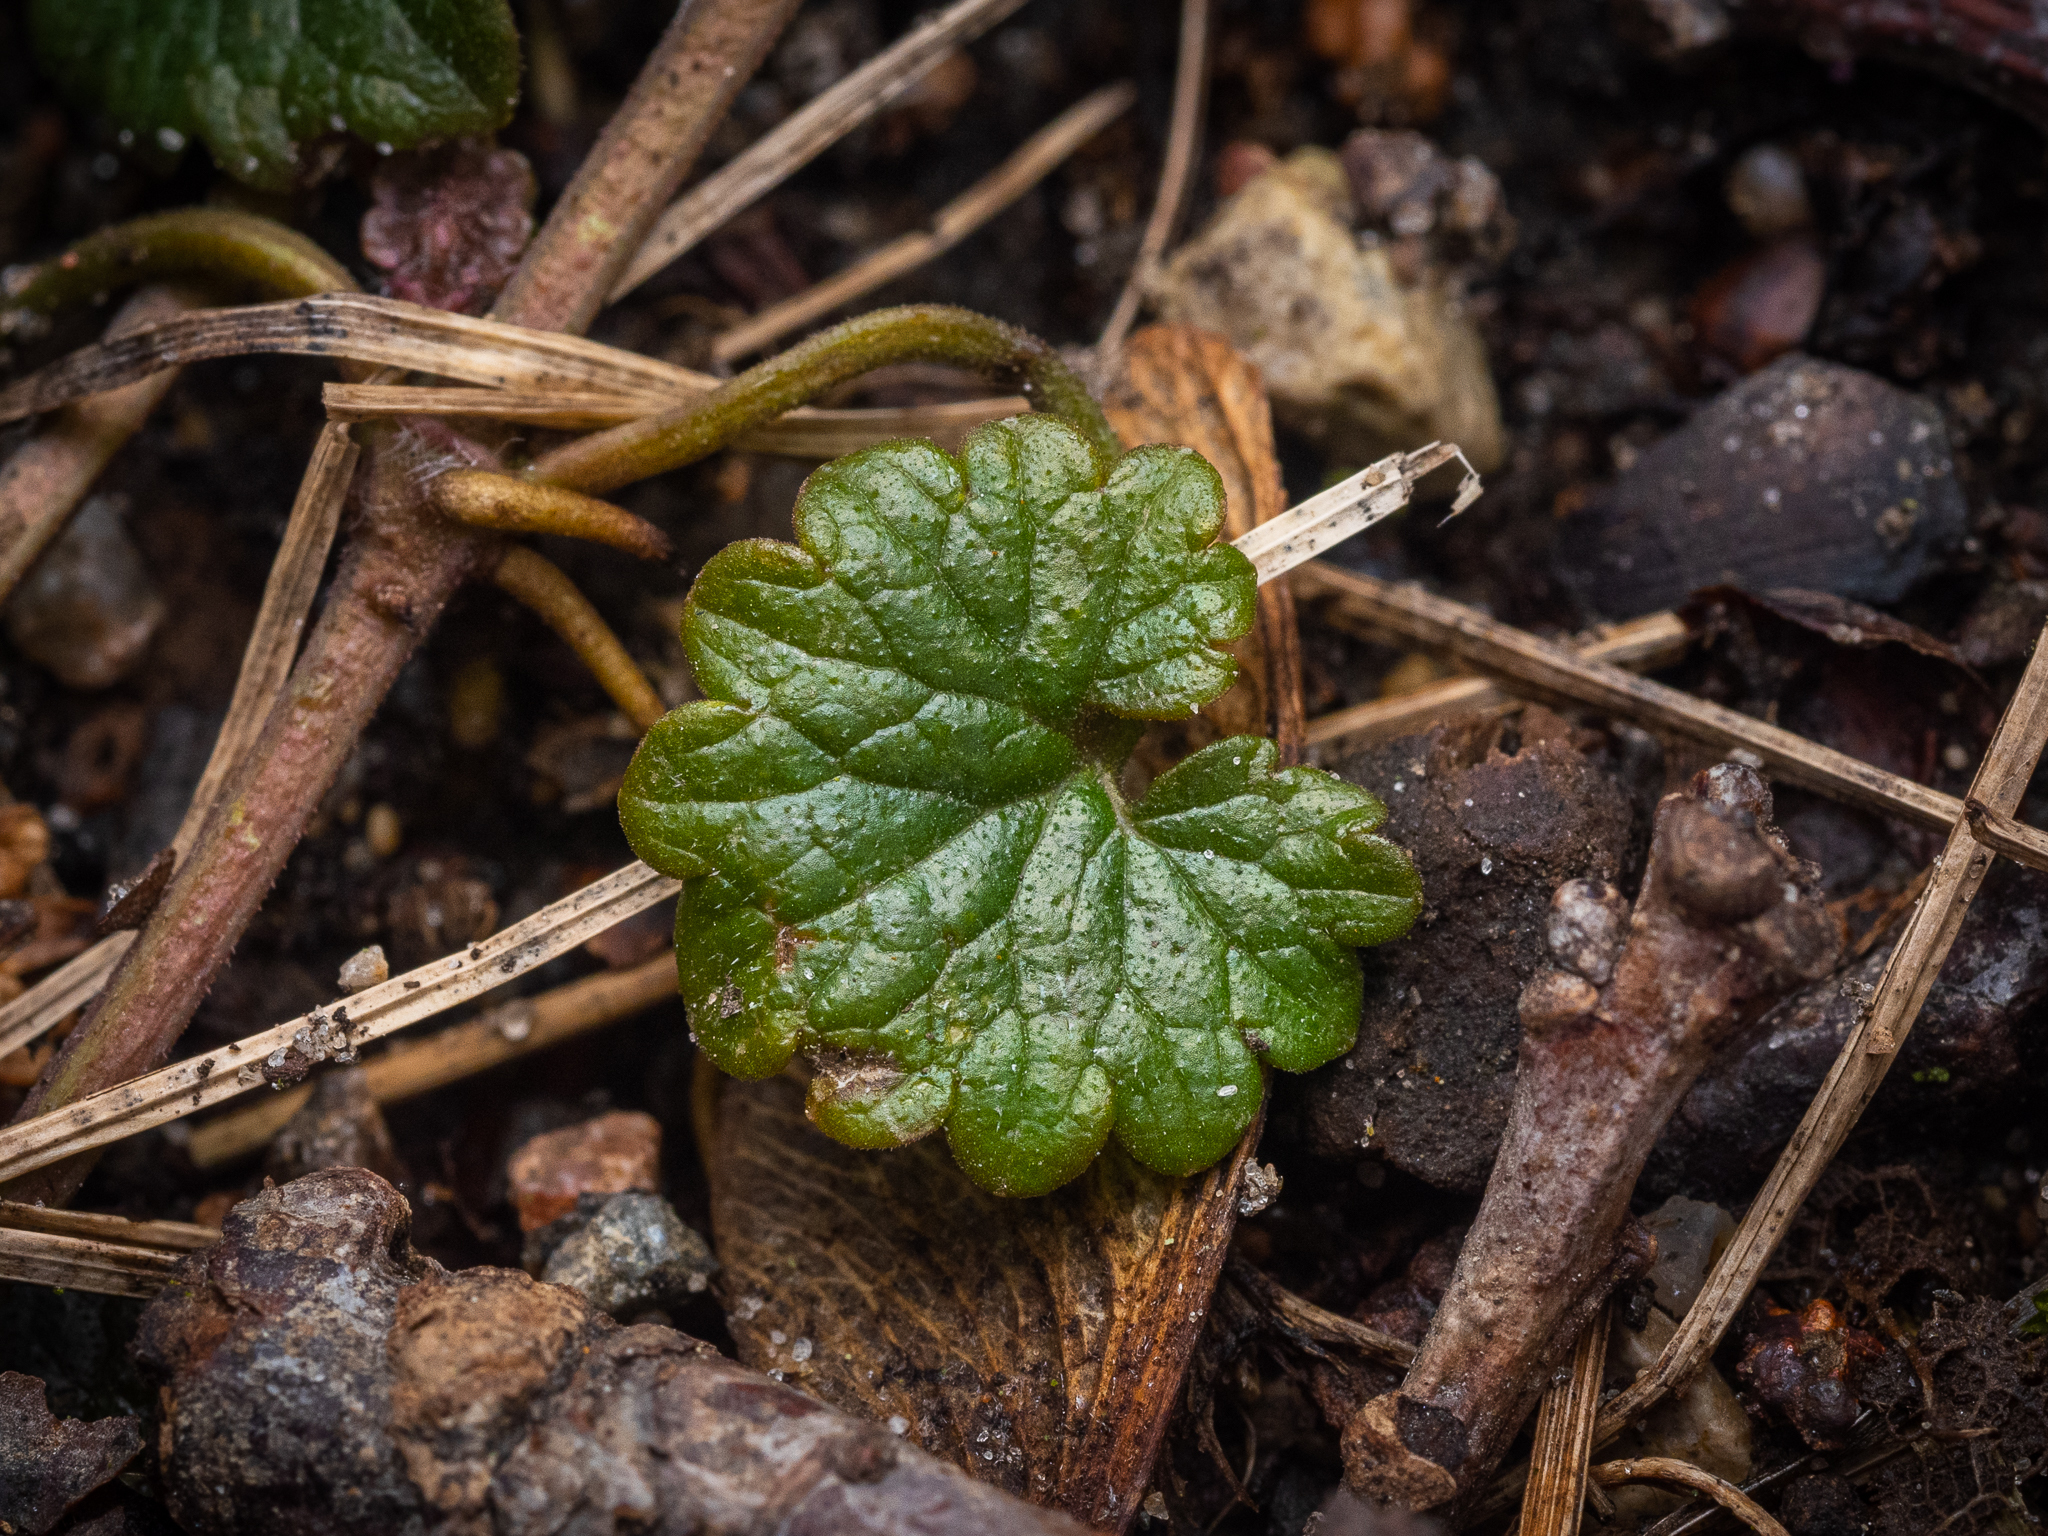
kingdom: Plantae
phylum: Tracheophyta
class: Magnoliopsida
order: Lamiales
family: Lamiaceae
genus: Glechoma
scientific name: Glechoma hederacea
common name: Ground ivy
